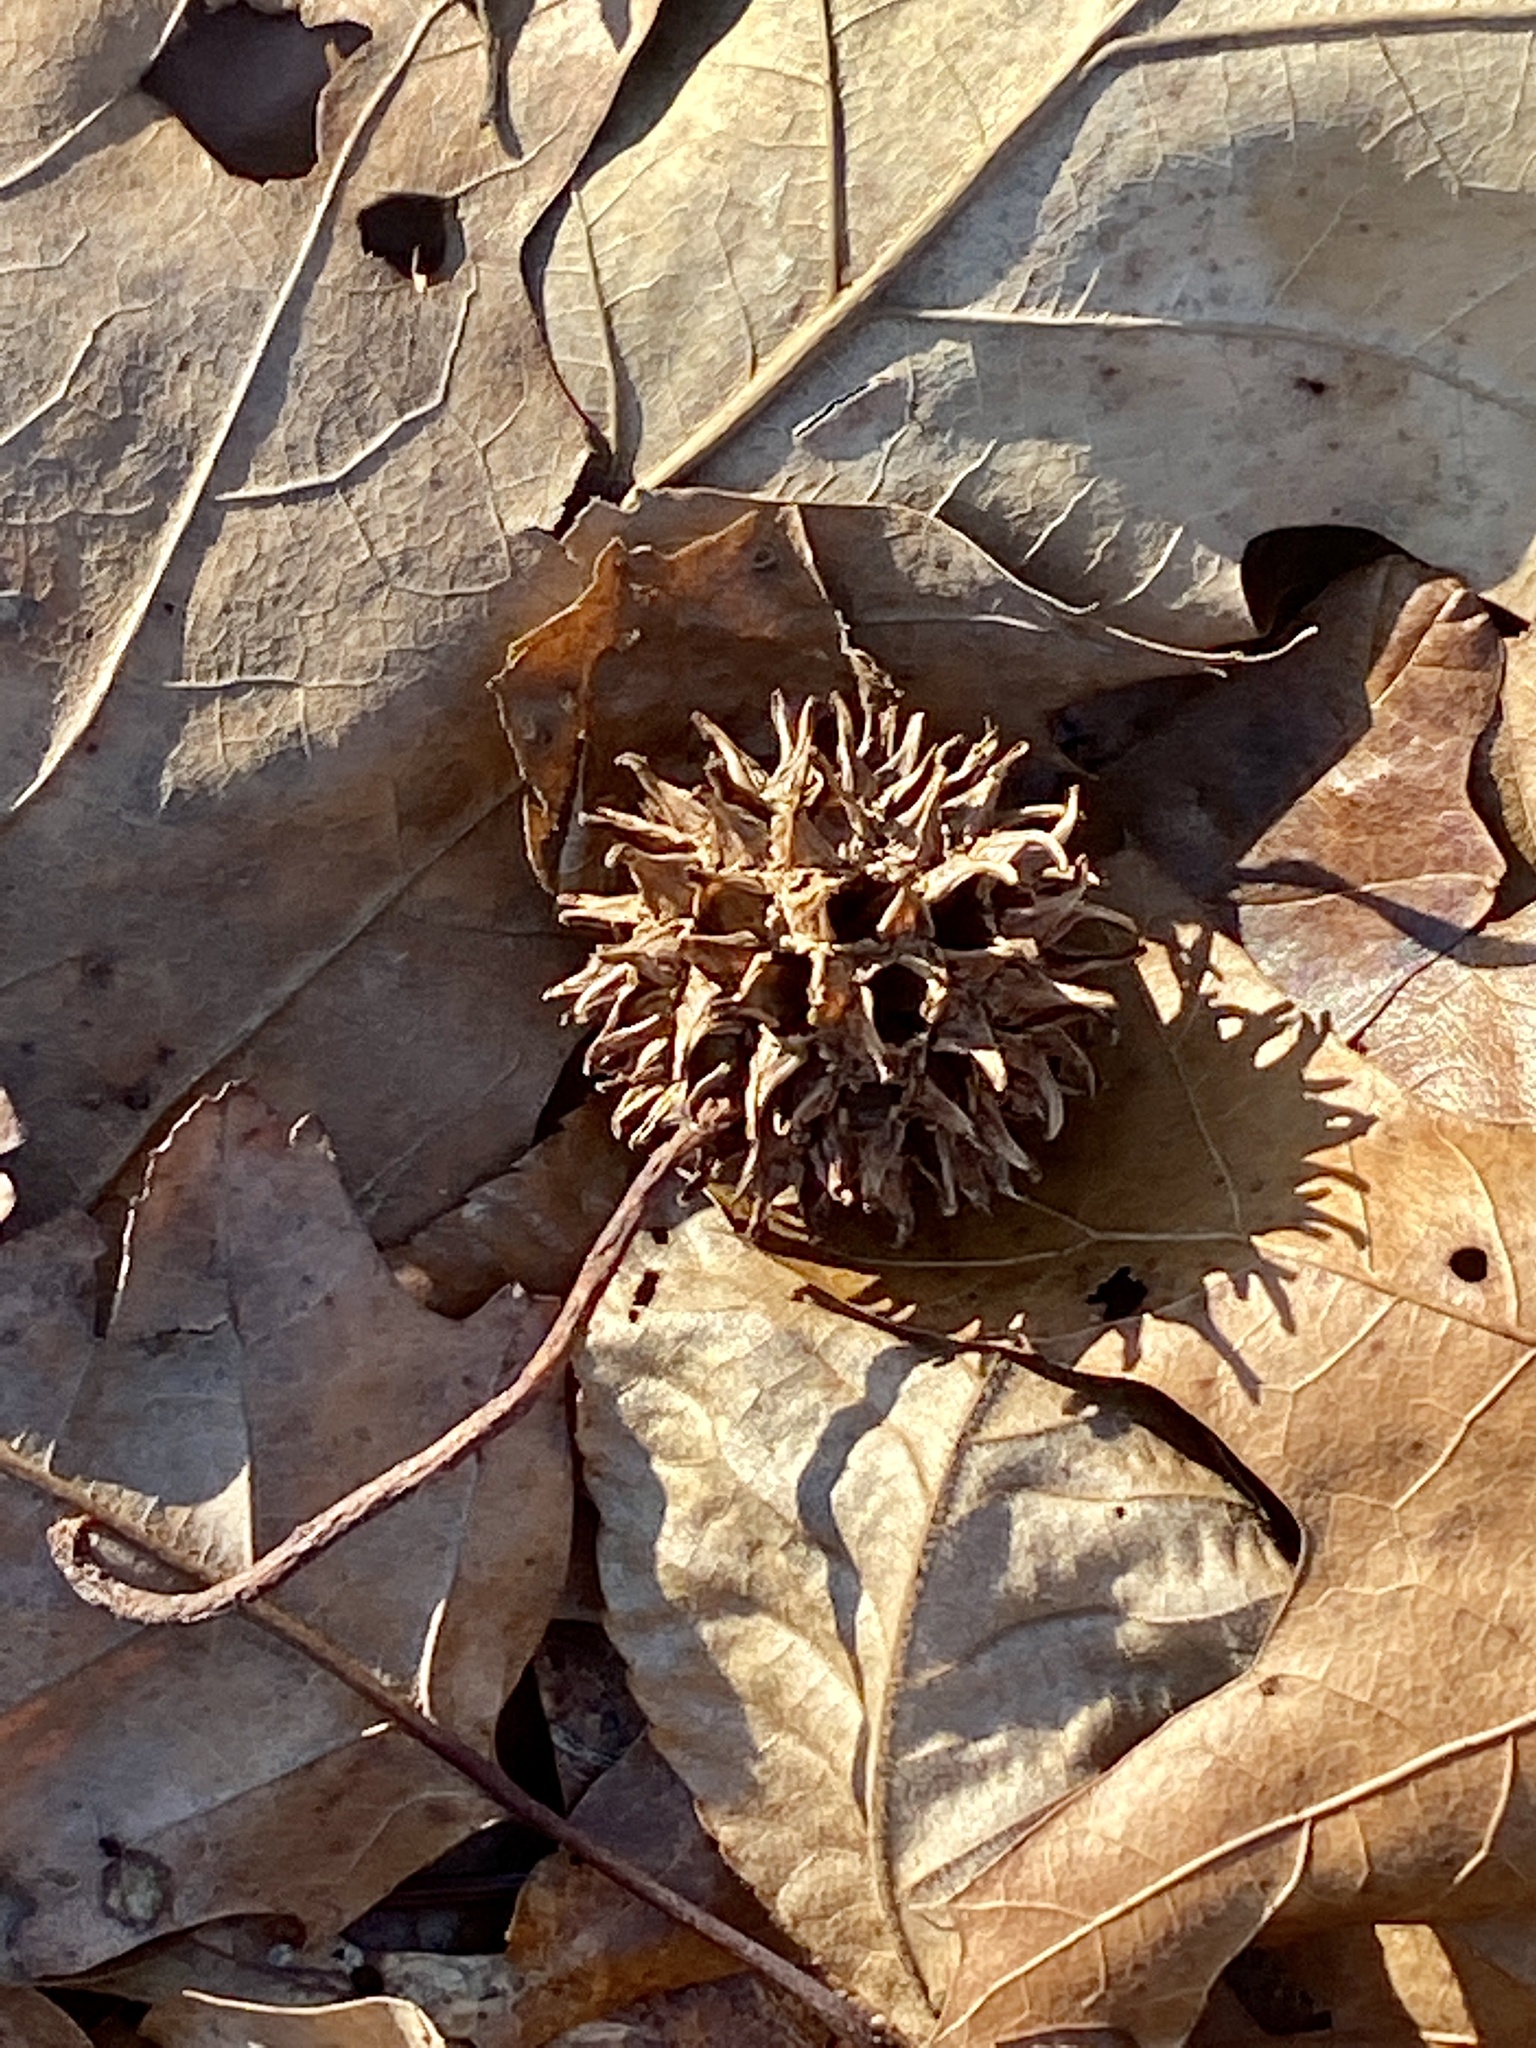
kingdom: Plantae
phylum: Tracheophyta
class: Magnoliopsida
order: Saxifragales
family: Altingiaceae
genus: Liquidambar
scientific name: Liquidambar styraciflua
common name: Sweet gum
